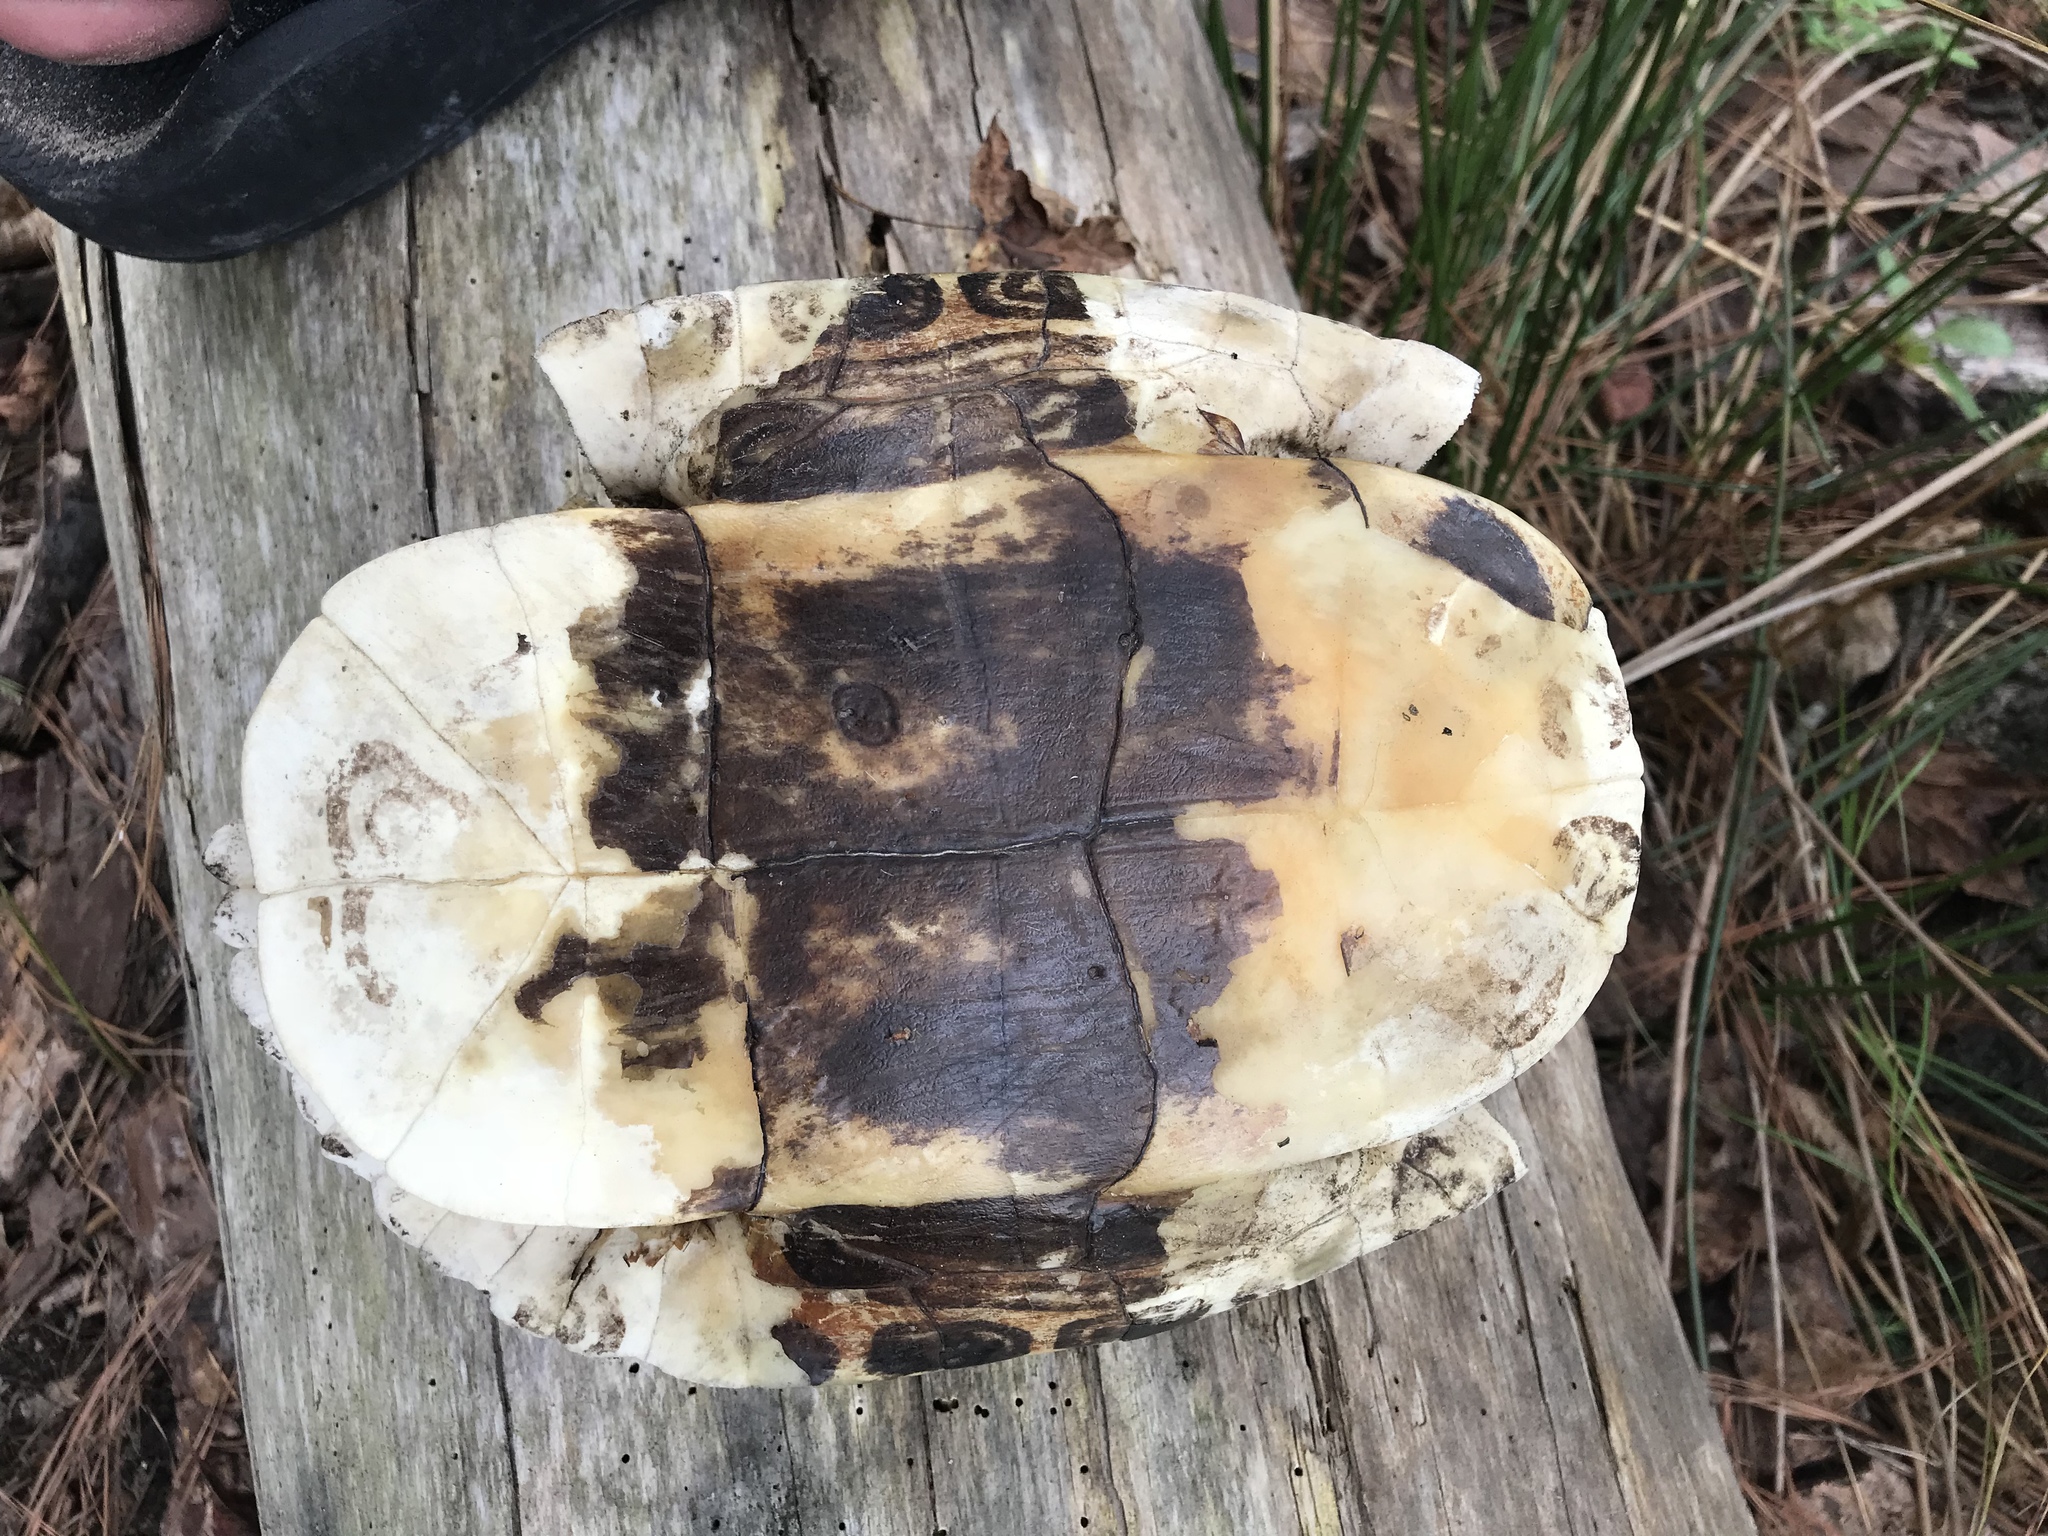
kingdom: Animalia
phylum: Chordata
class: Testudines
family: Emydidae
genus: Trachemys
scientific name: Trachemys scripta
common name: Slider
